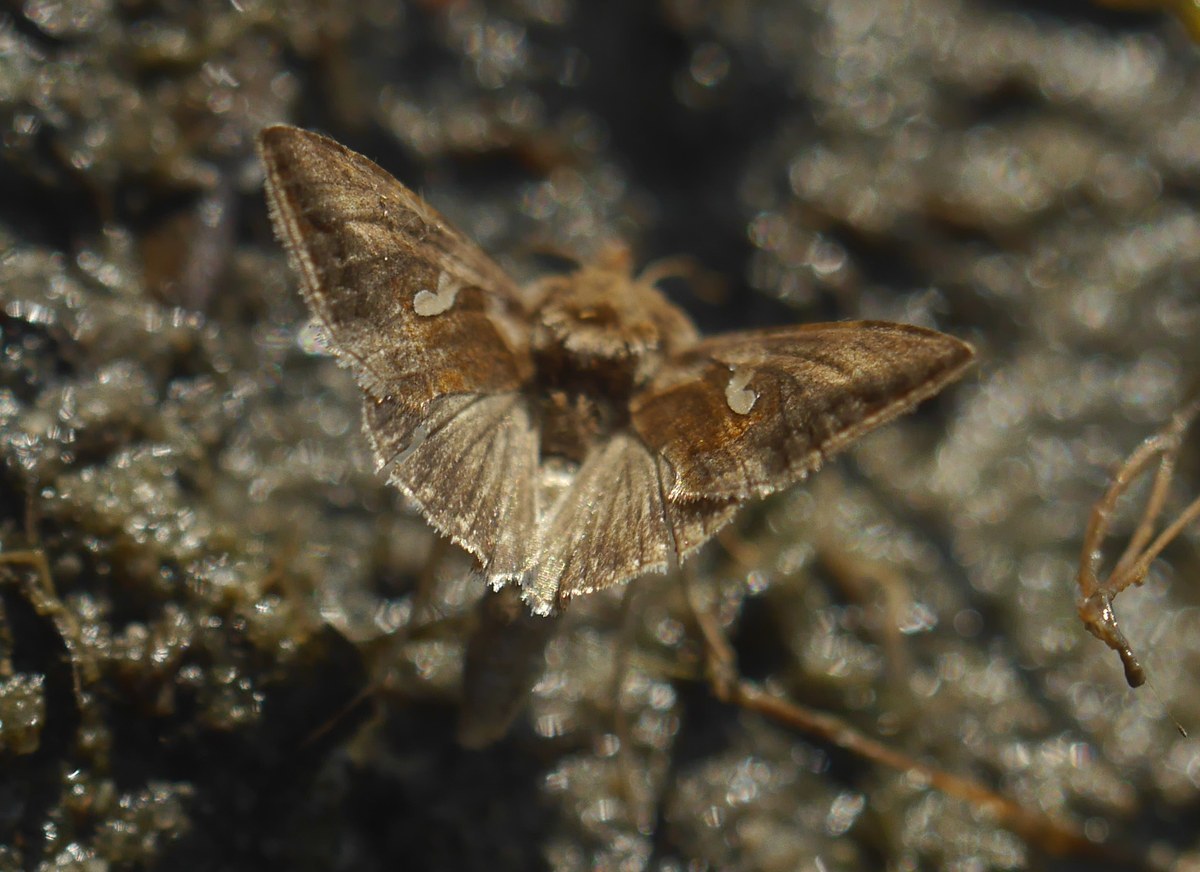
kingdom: Animalia
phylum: Arthropoda
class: Insecta
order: Lepidoptera
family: Noctuidae
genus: Macdunnoughia
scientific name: Macdunnoughia confusa
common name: Dewick's plusia
